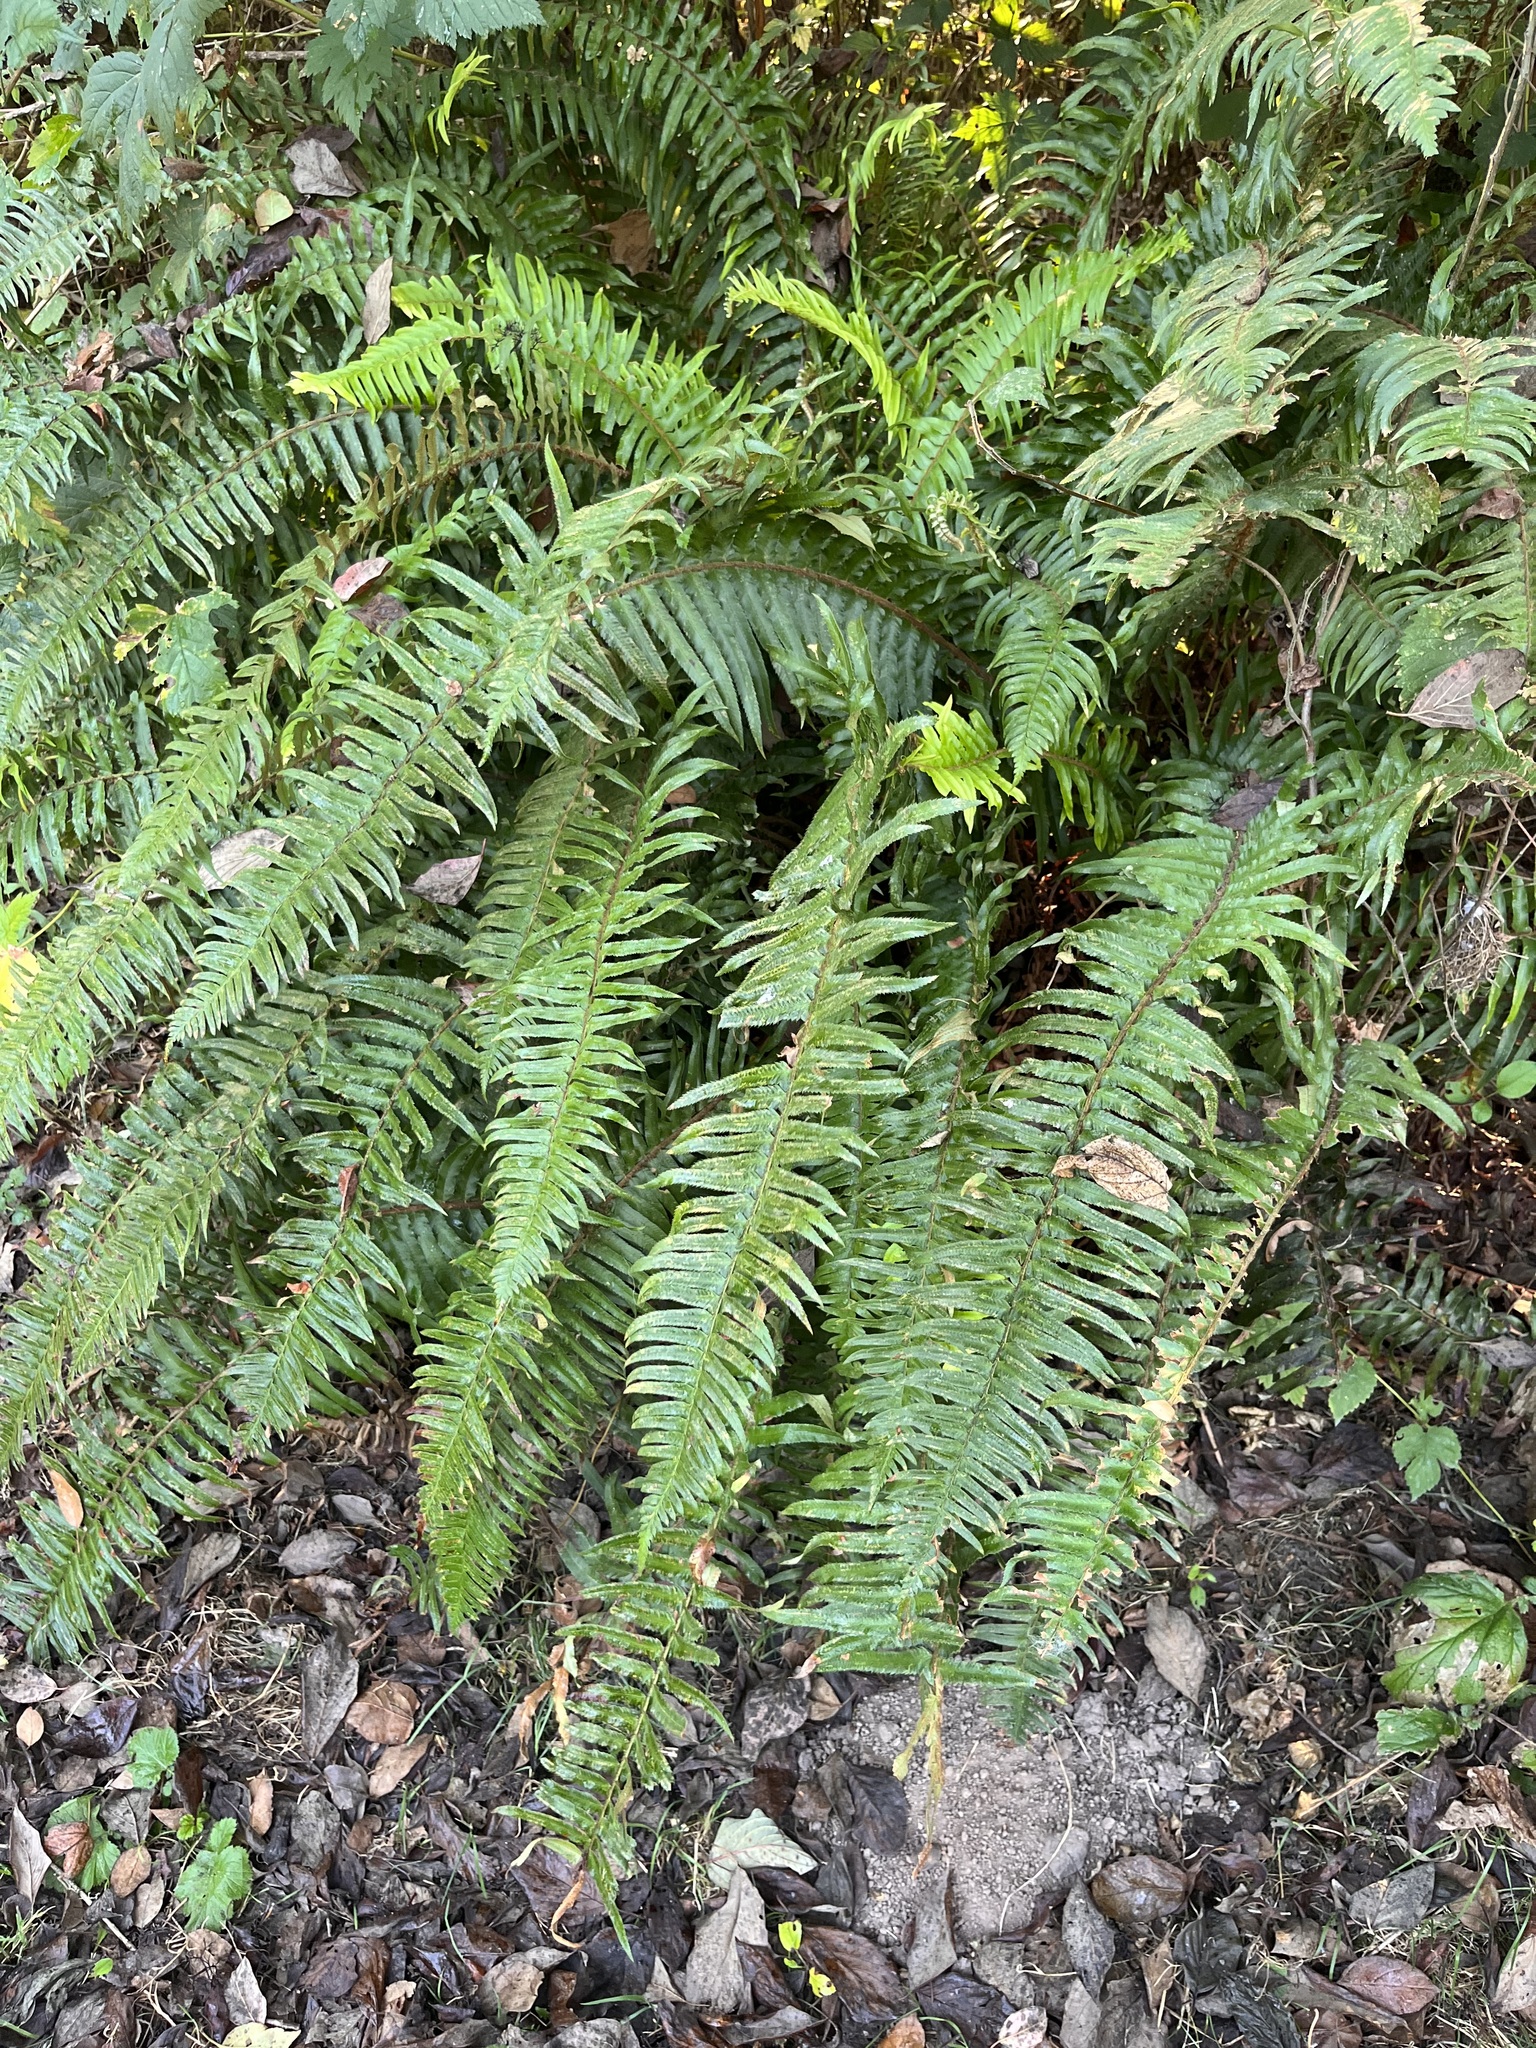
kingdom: Plantae
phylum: Tracheophyta
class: Polypodiopsida
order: Polypodiales
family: Dryopteridaceae
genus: Polystichum
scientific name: Polystichum munitum
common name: Western sword-fern
